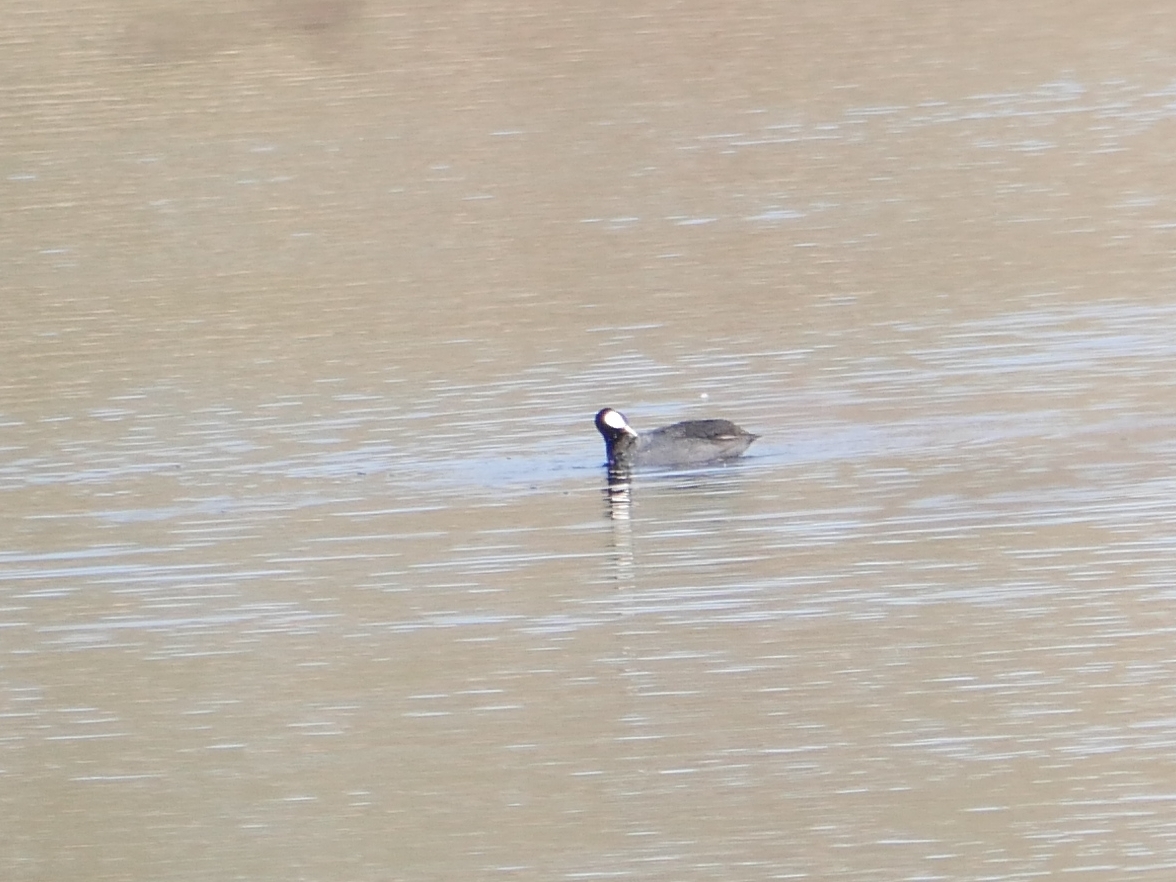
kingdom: Animalia
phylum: Chordata
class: Aves
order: Gruiformes
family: Rallidae
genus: Fulica
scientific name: Fulica atra
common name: Eurasian coot
